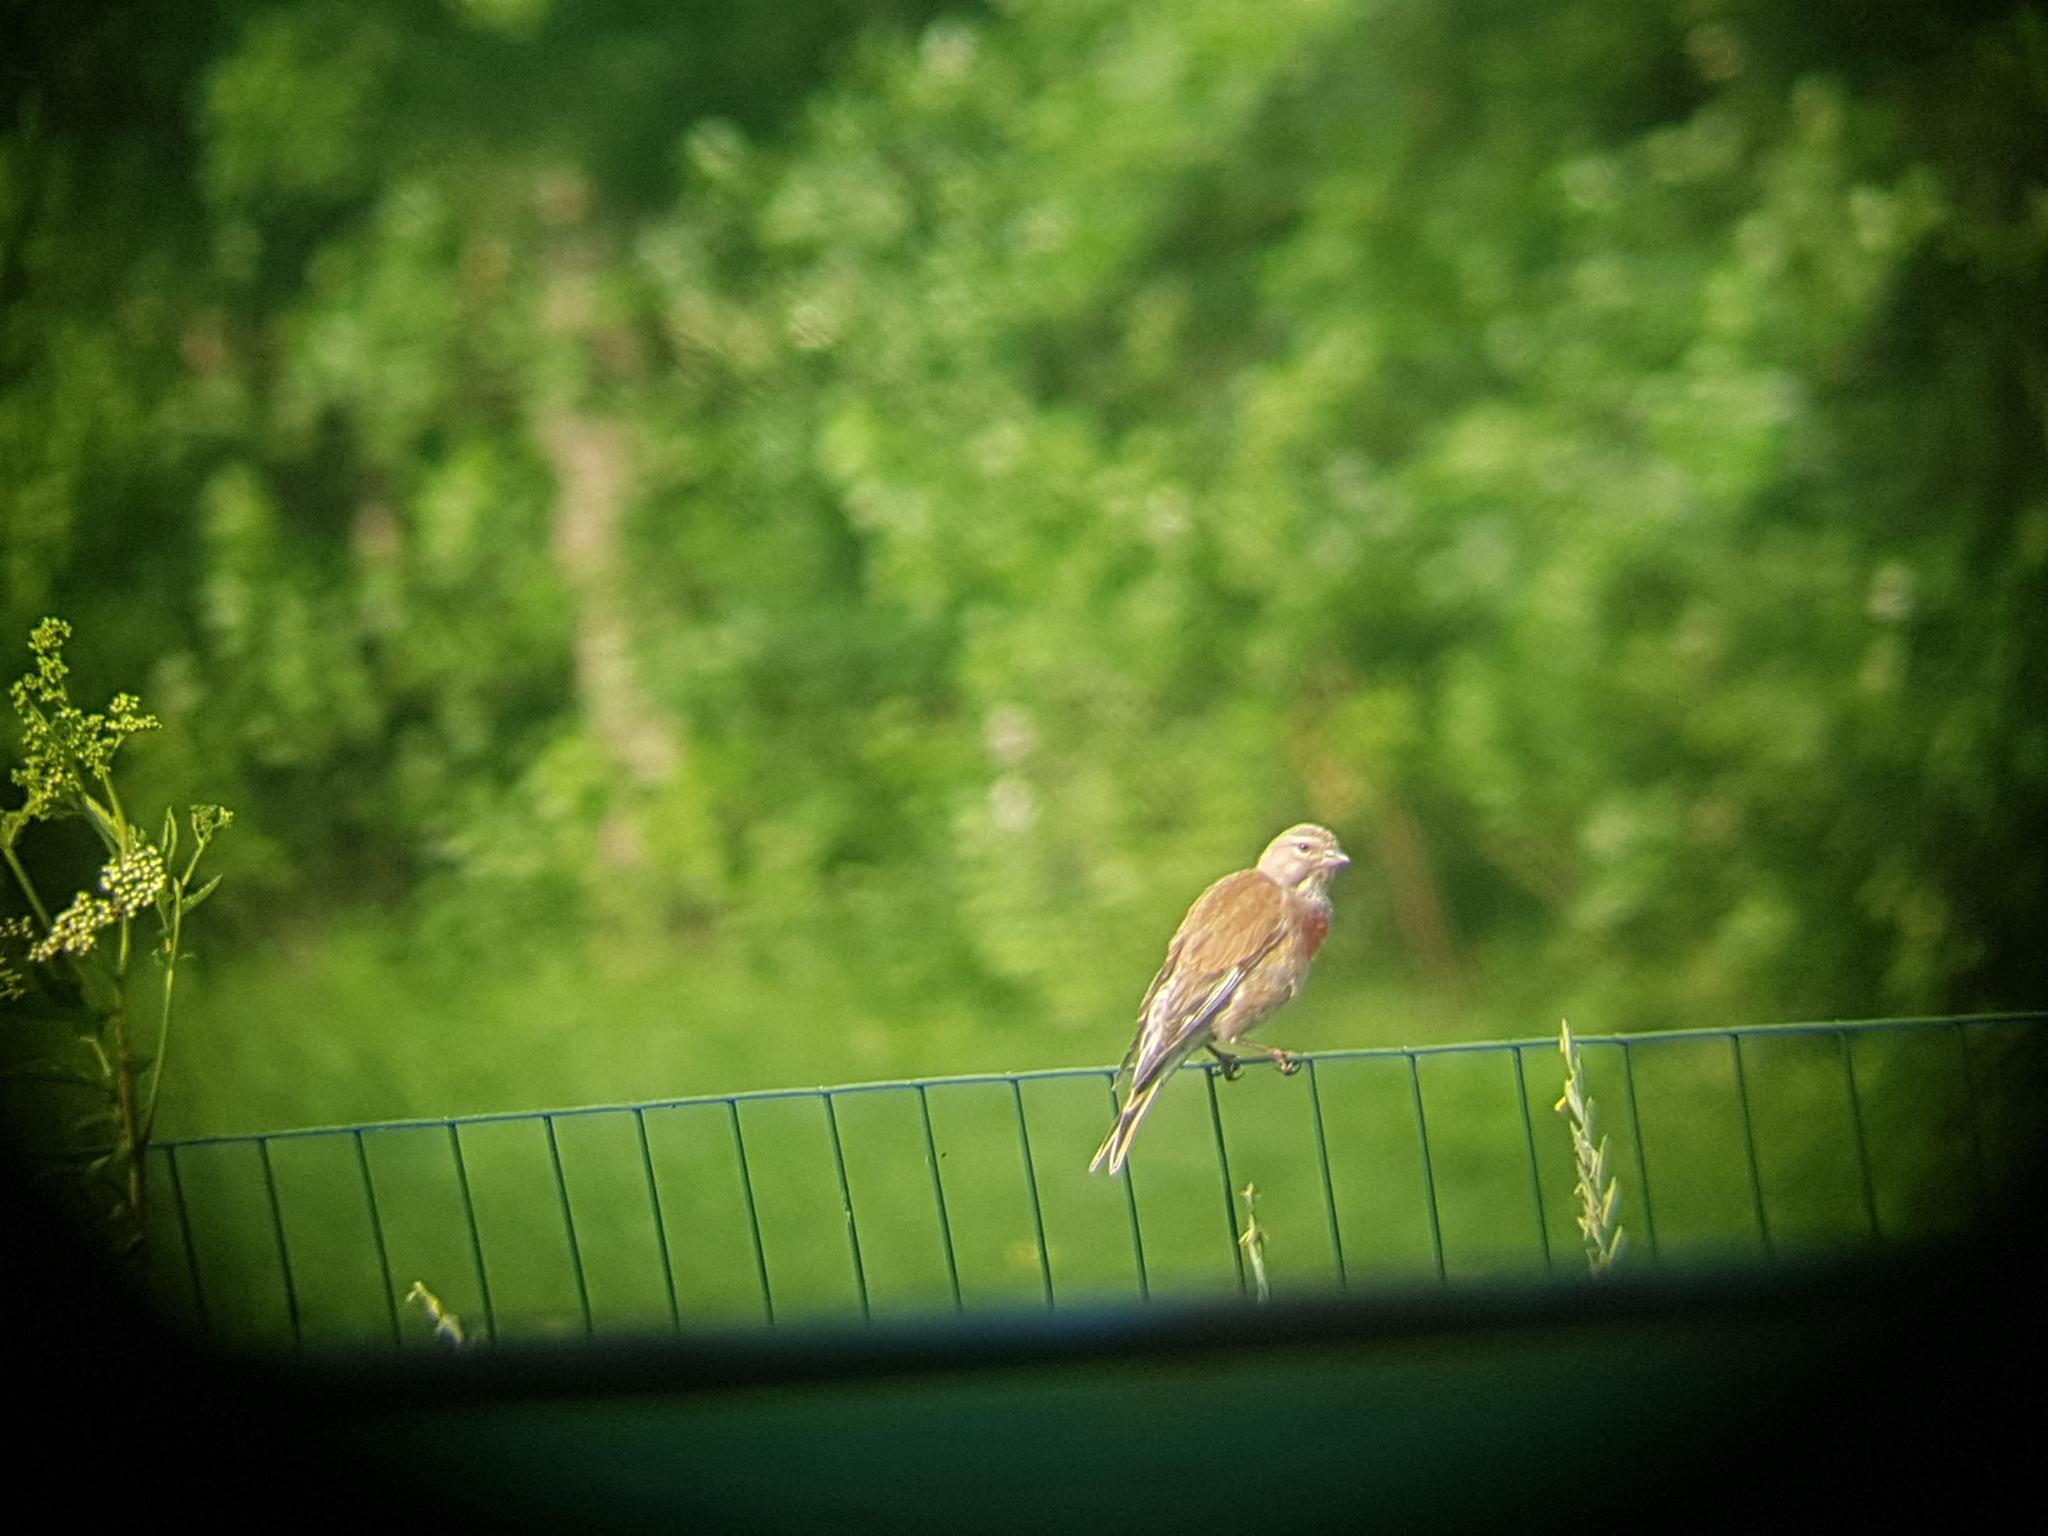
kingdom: Animalia
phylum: Chordata
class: Aves
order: Passeriformes
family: Fringillidae
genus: Linaria
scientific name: Linaria cannabina
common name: Common linnet
